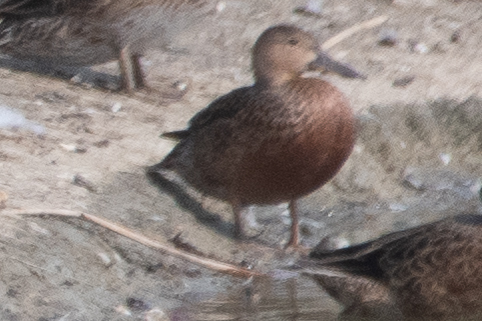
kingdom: Animalia
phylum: Chordata
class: Aves
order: Anseriformes
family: Anatidae
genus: Spatula
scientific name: Spatula cyanoptera
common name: Cinnamon teal
